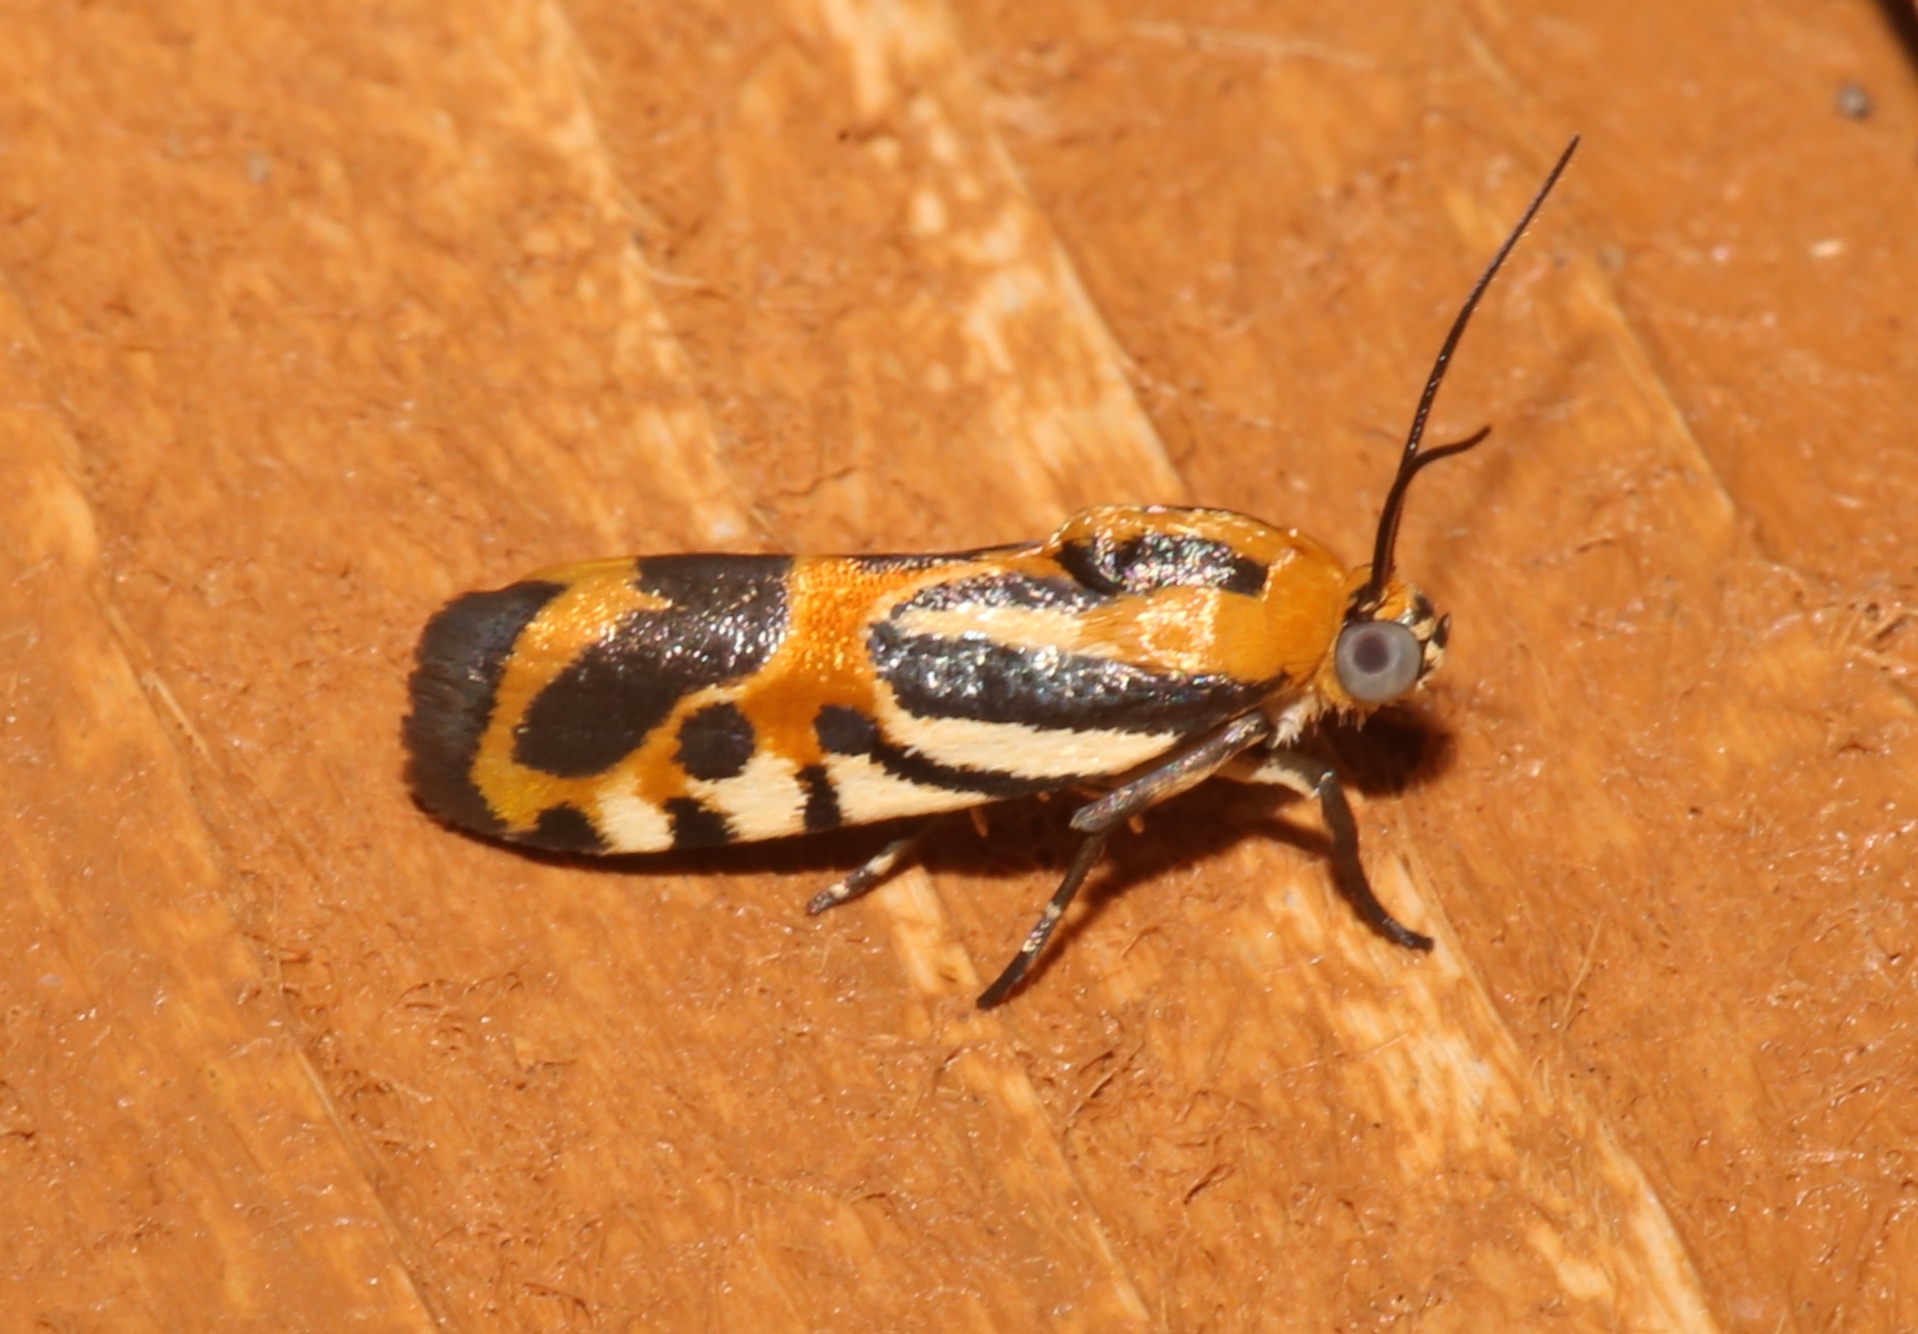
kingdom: Animalia
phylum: Arthropoda
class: Insecta
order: Lepidoptera
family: Noctuidae
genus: Acontia
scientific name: Acontia onagrus
